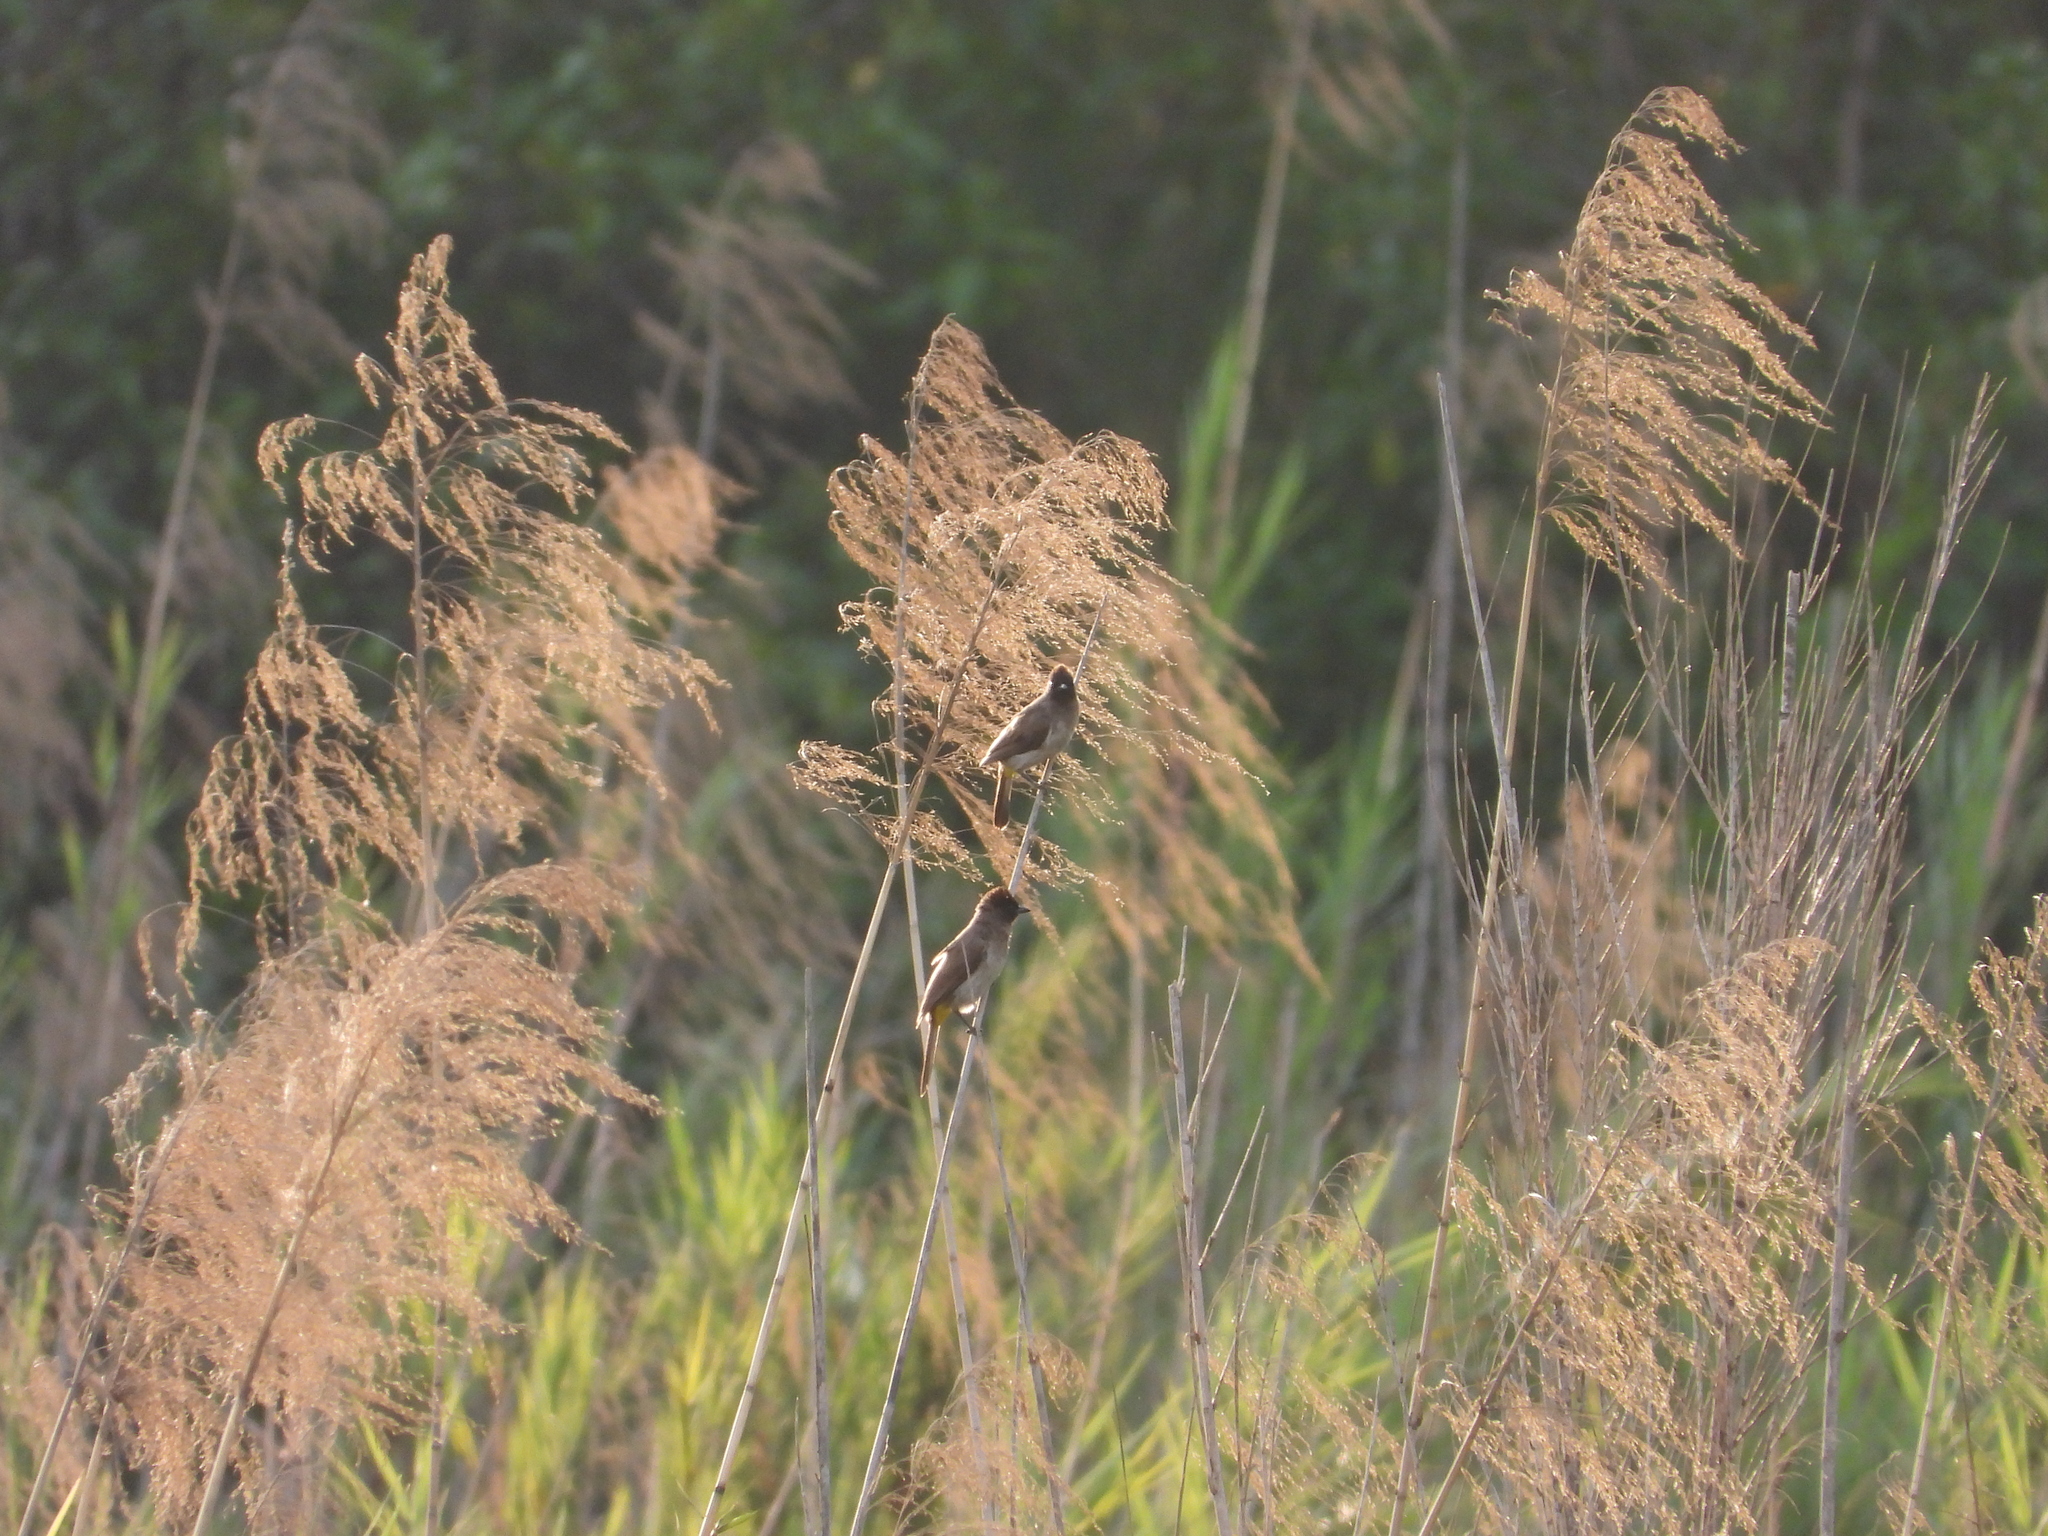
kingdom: Animalia
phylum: Chordata
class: Aves
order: Passeriformes
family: Pycnonotidae
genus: Pycnonotus
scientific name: Pycnonotus barbatus
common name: Common bulbul
